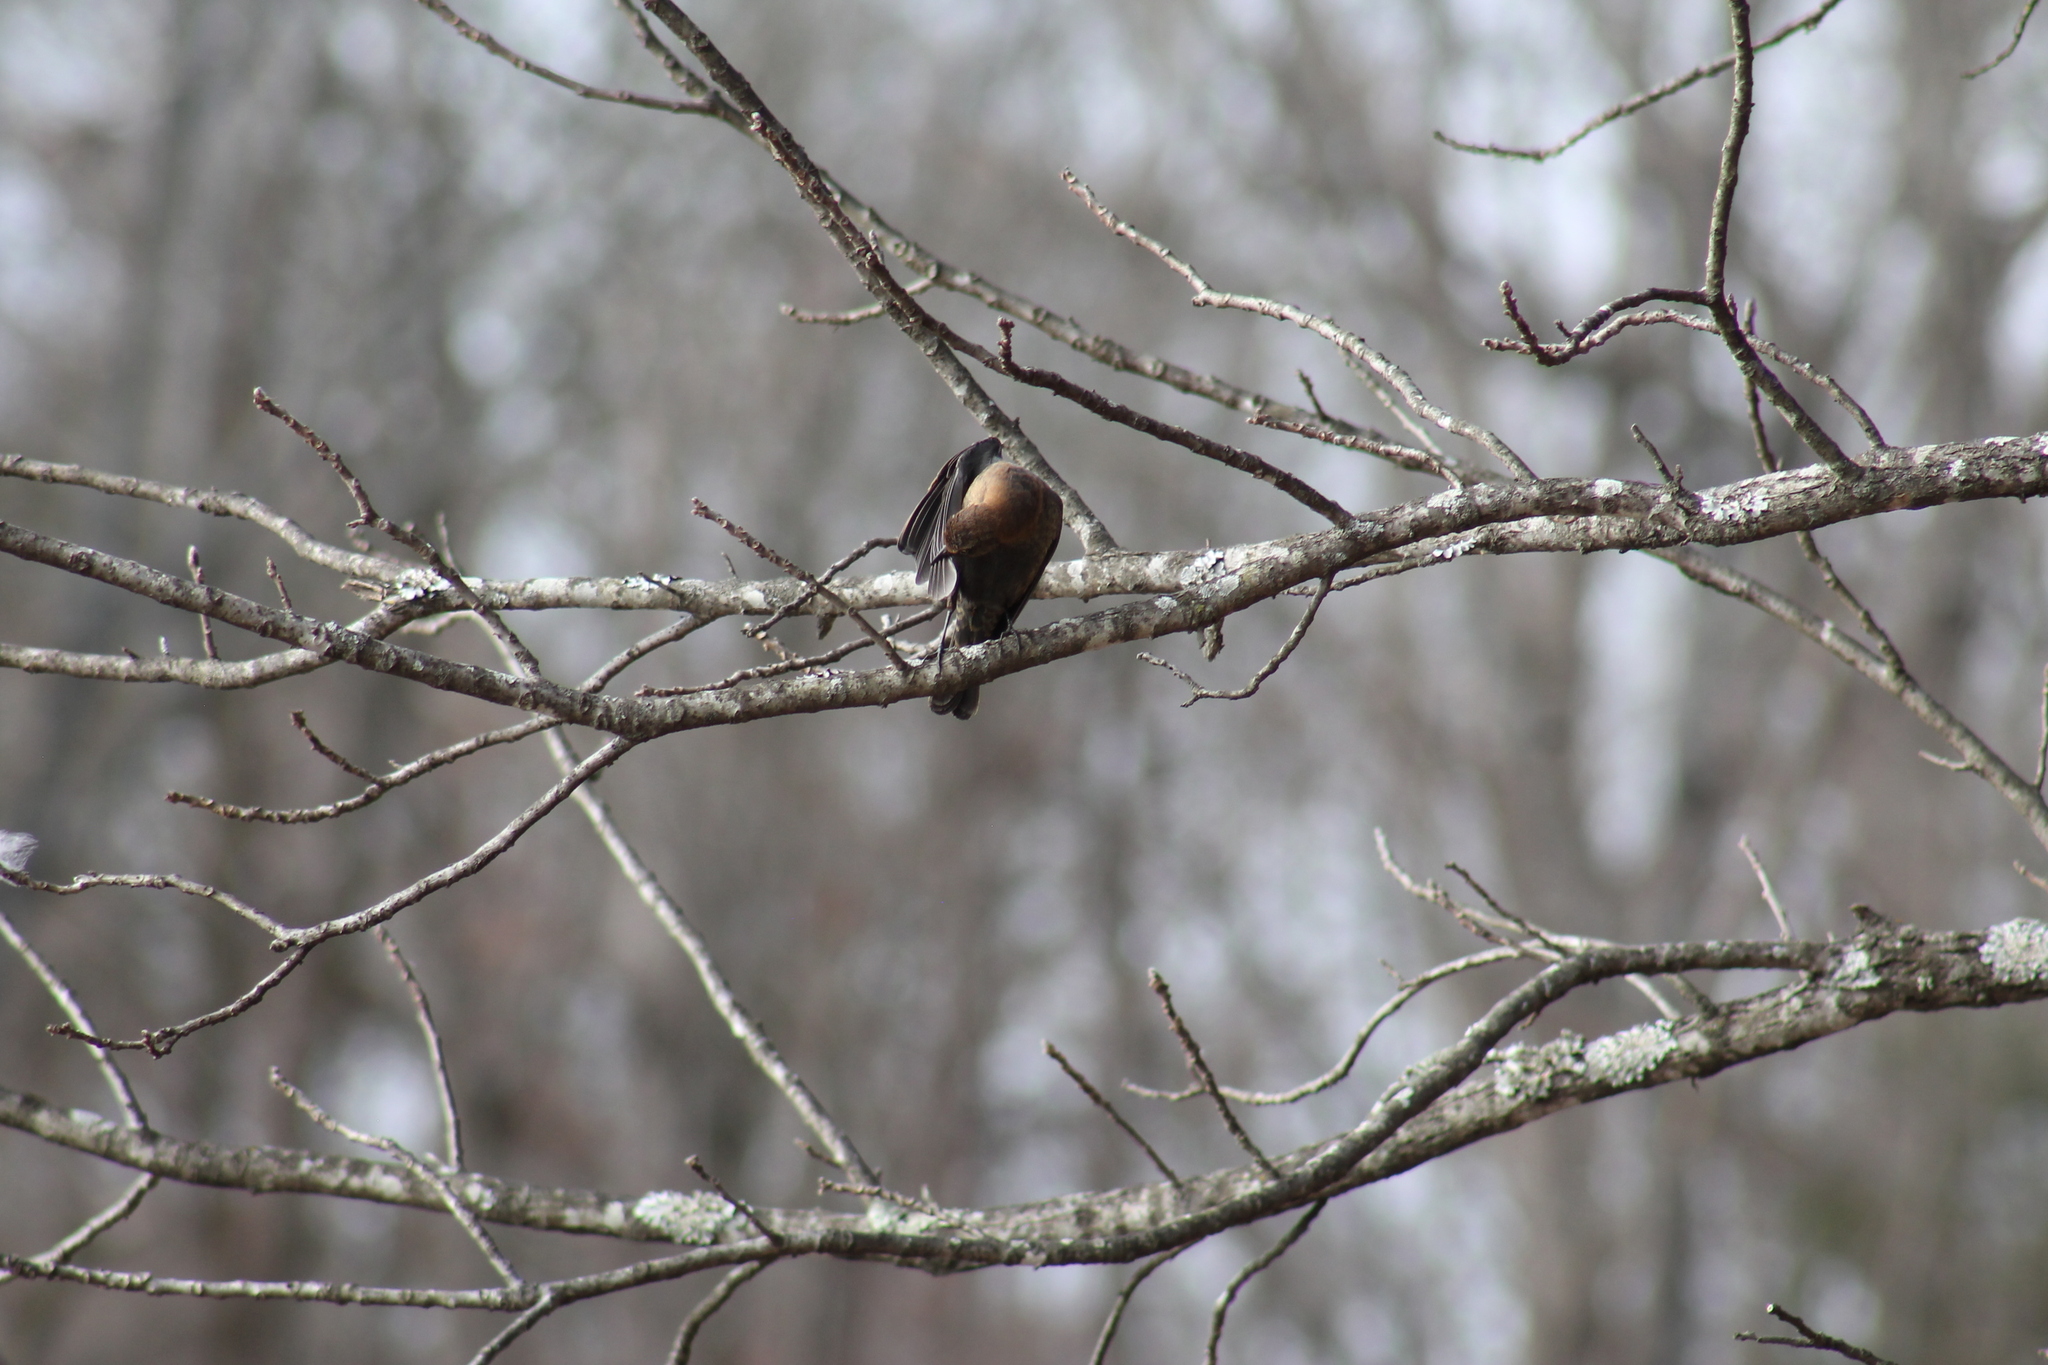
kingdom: Animalia
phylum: Chordata
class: Aves
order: Passeriformes
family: Icteridae
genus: Euphagus
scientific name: Euphagus carolinus
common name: Rusty blackbird
